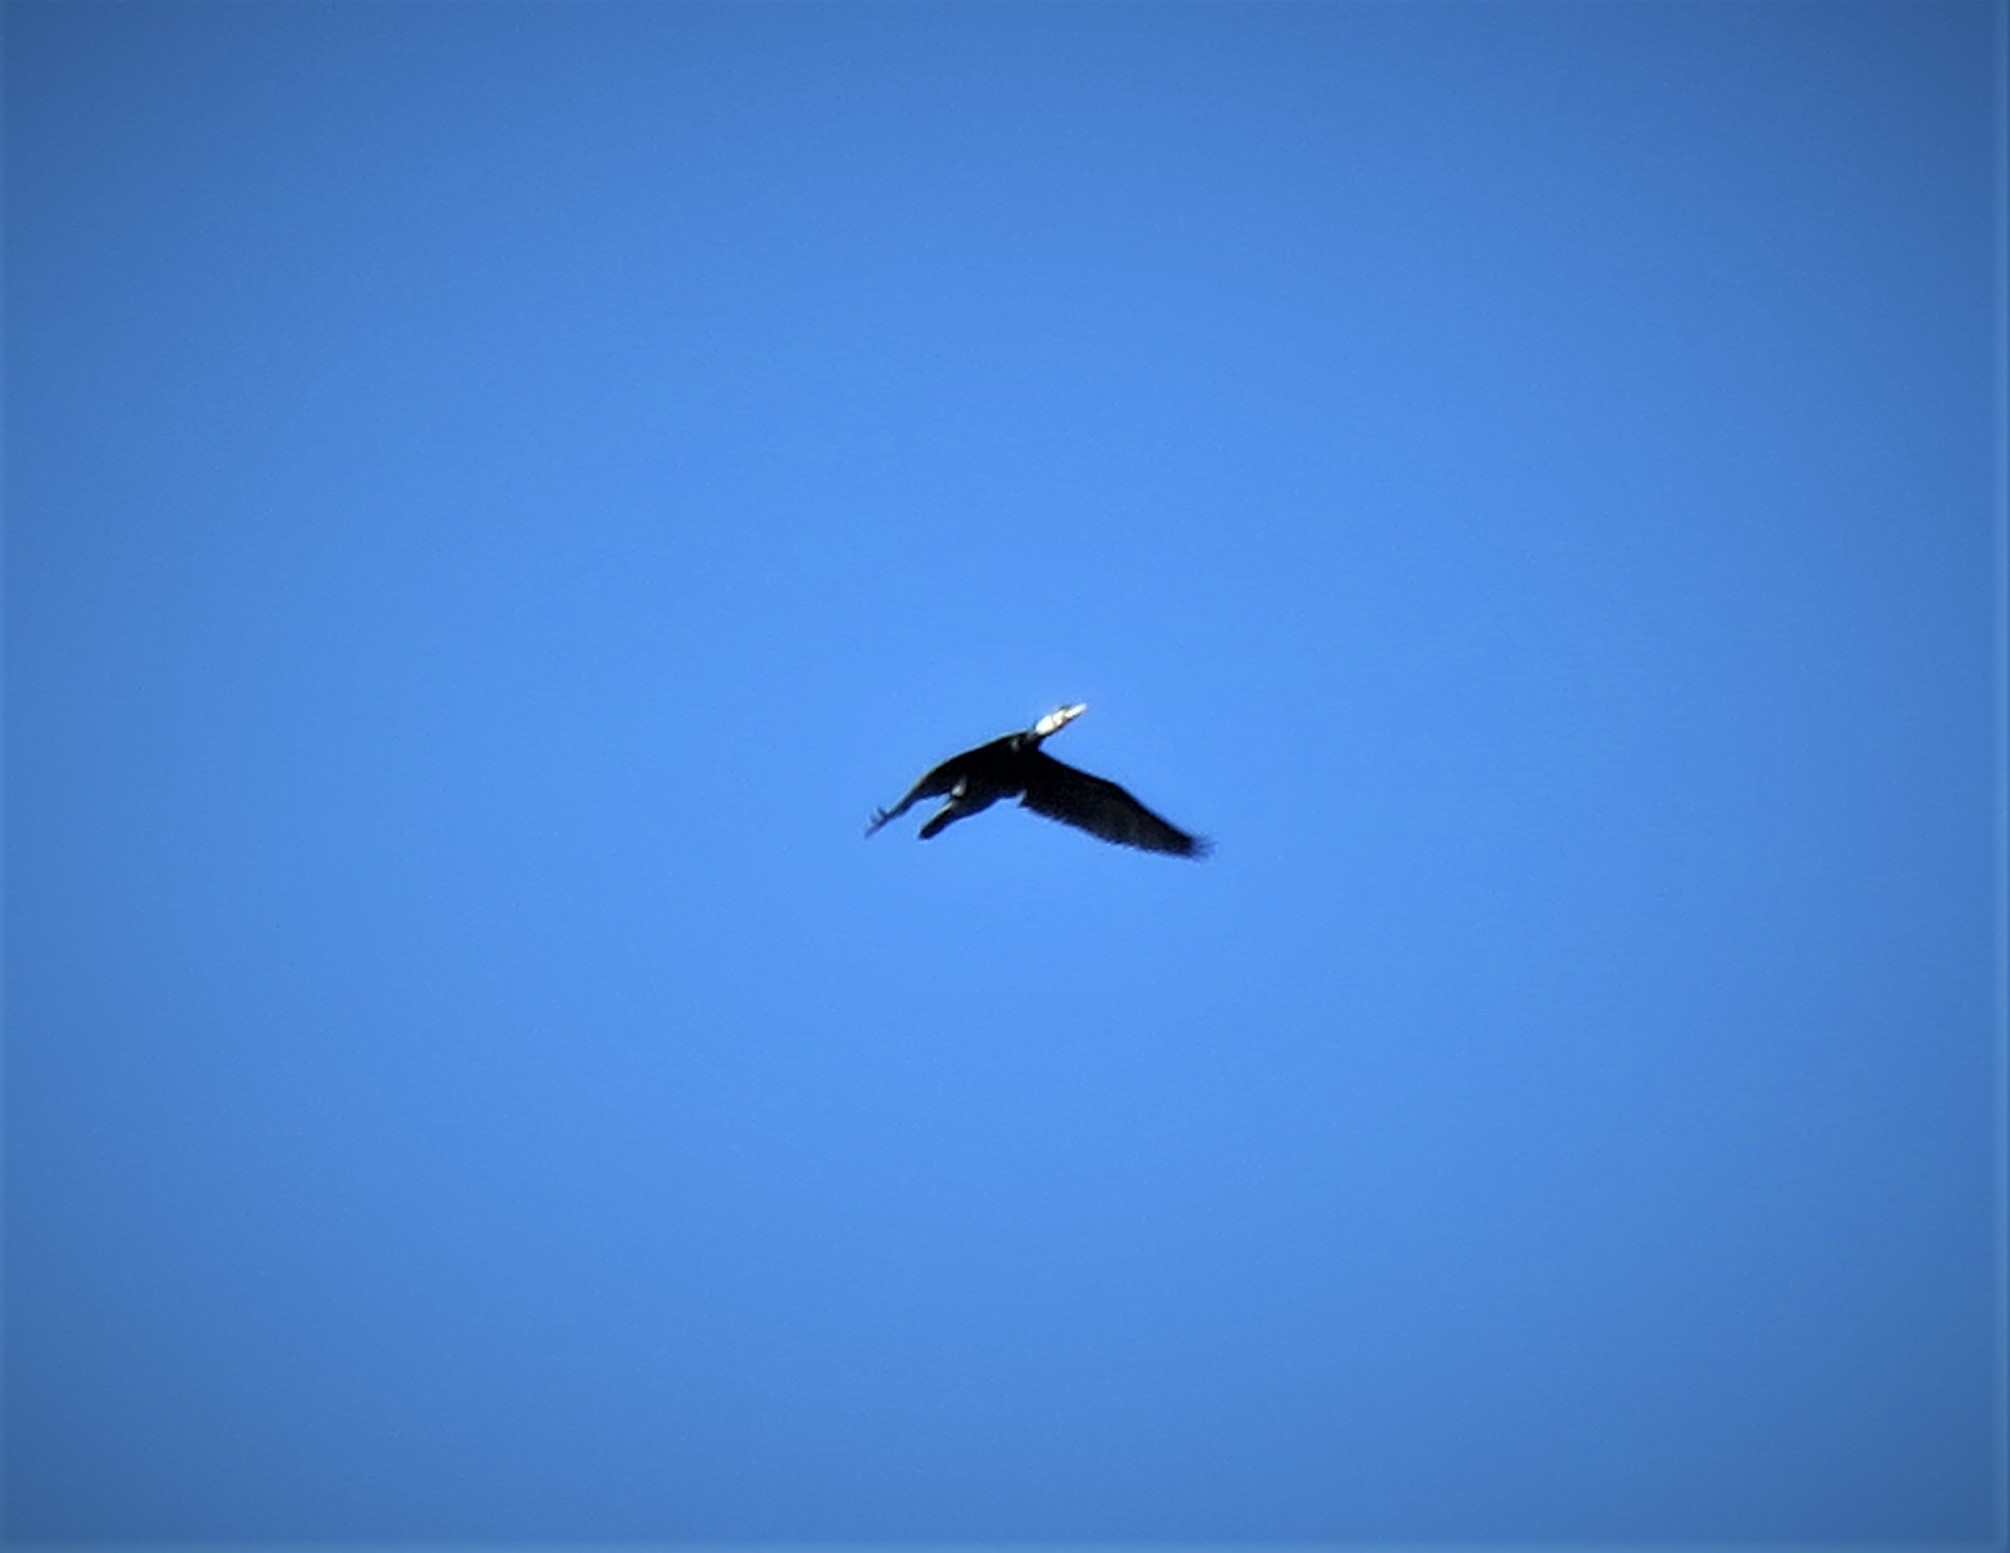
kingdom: Animalia
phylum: Chordata
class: Aves
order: Suliformes
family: Phalacrocoracidae
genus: Phalacrocorax
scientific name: Phalacrocorax carbo
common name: Great cormorant
